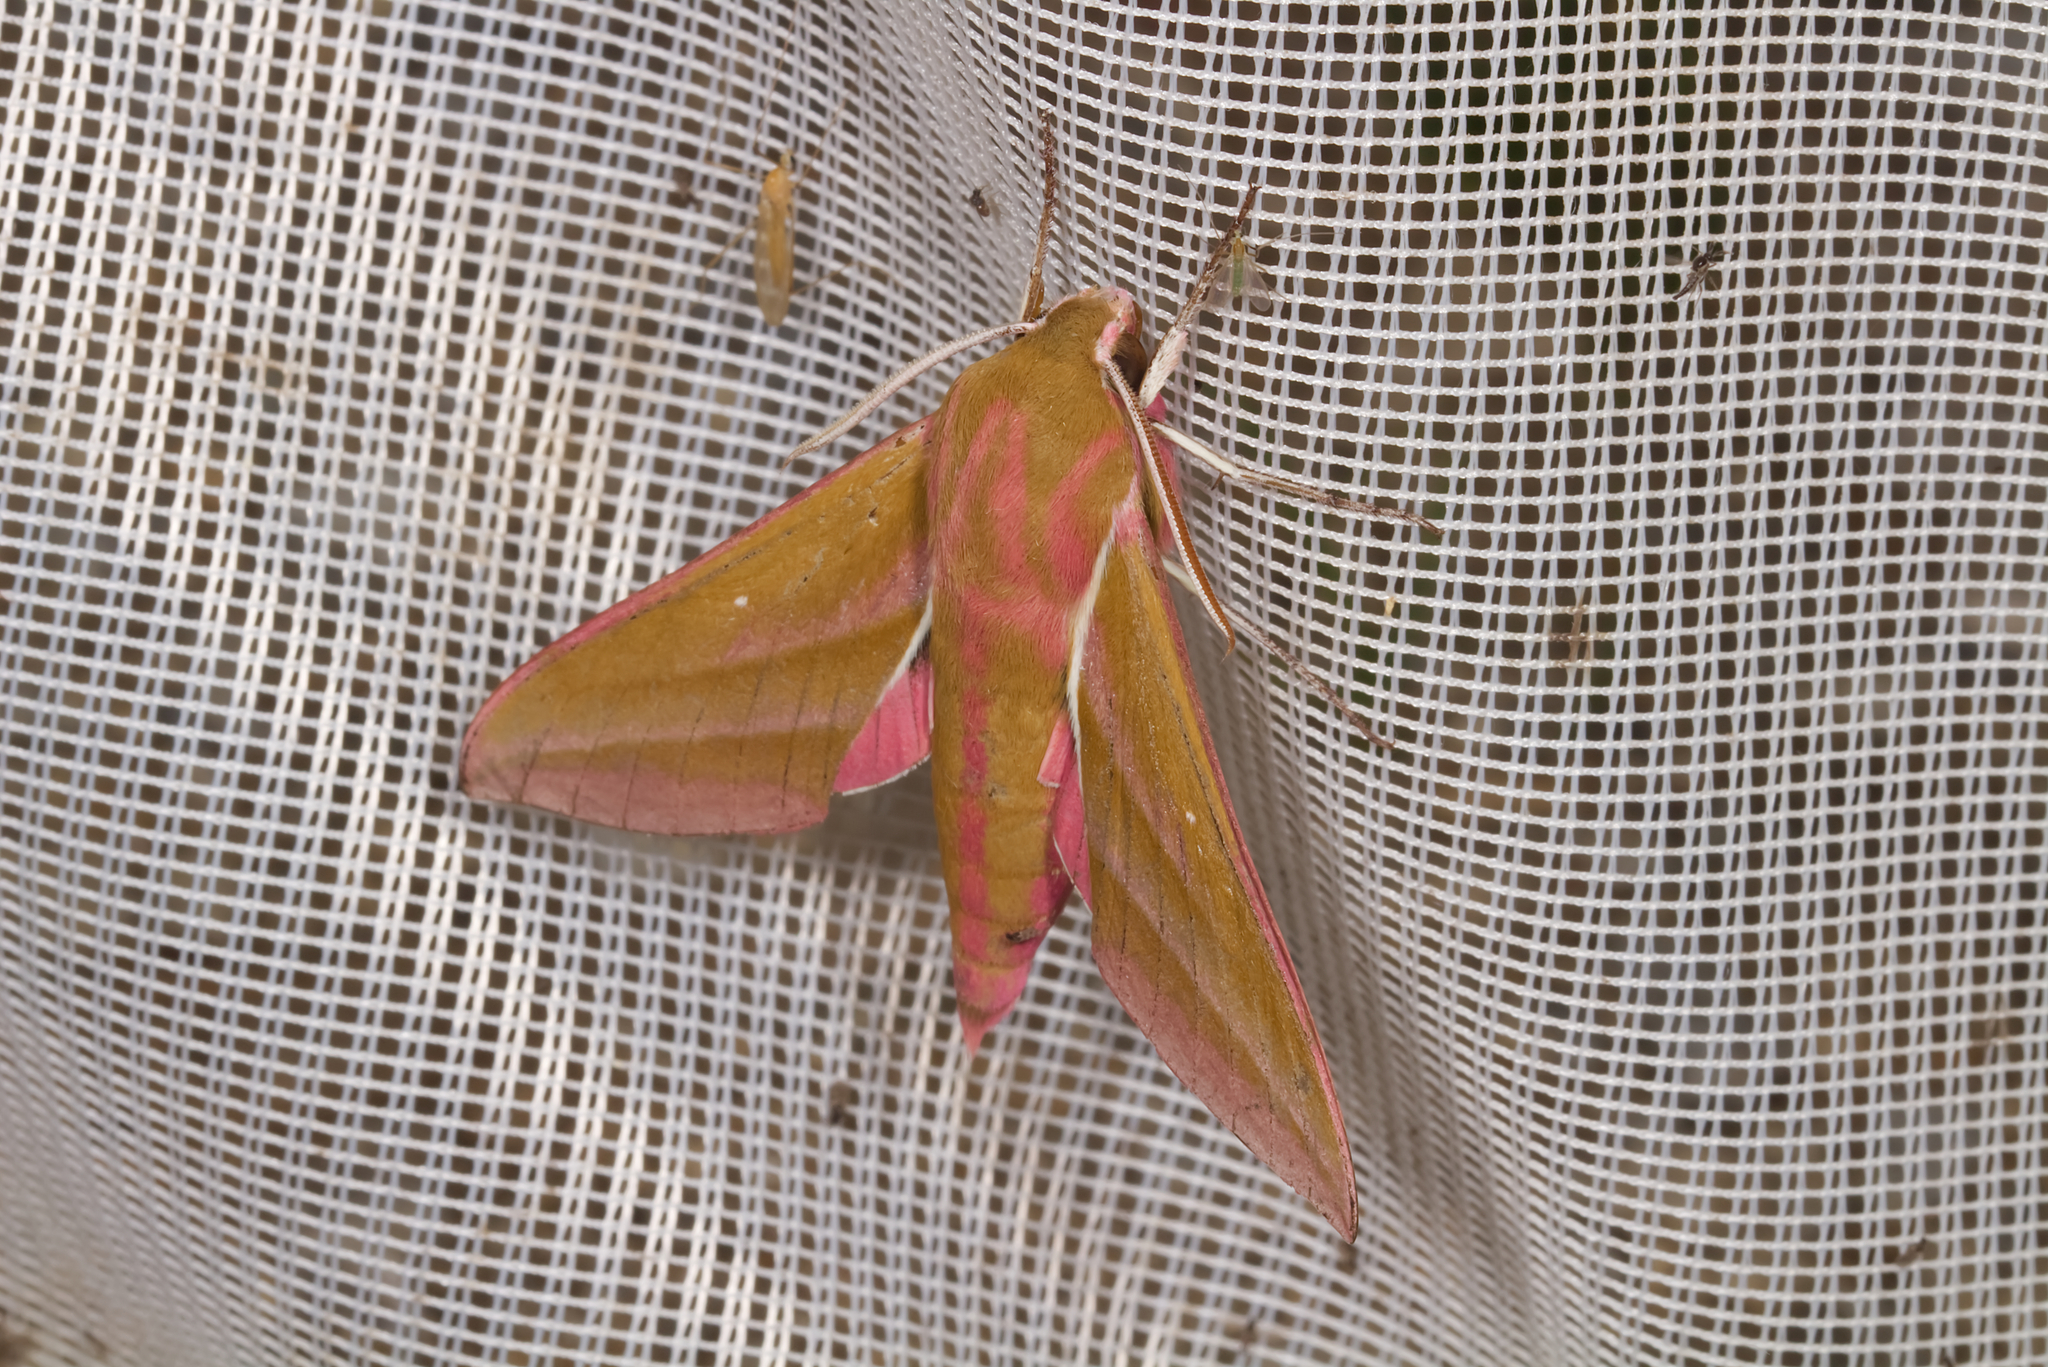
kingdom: Animalia
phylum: Arthropoda
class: Insecta
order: Lepidoptera
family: Sphingidae
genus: Deilephila
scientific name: Deilephila elpenor
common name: Elephant hawk-moth
